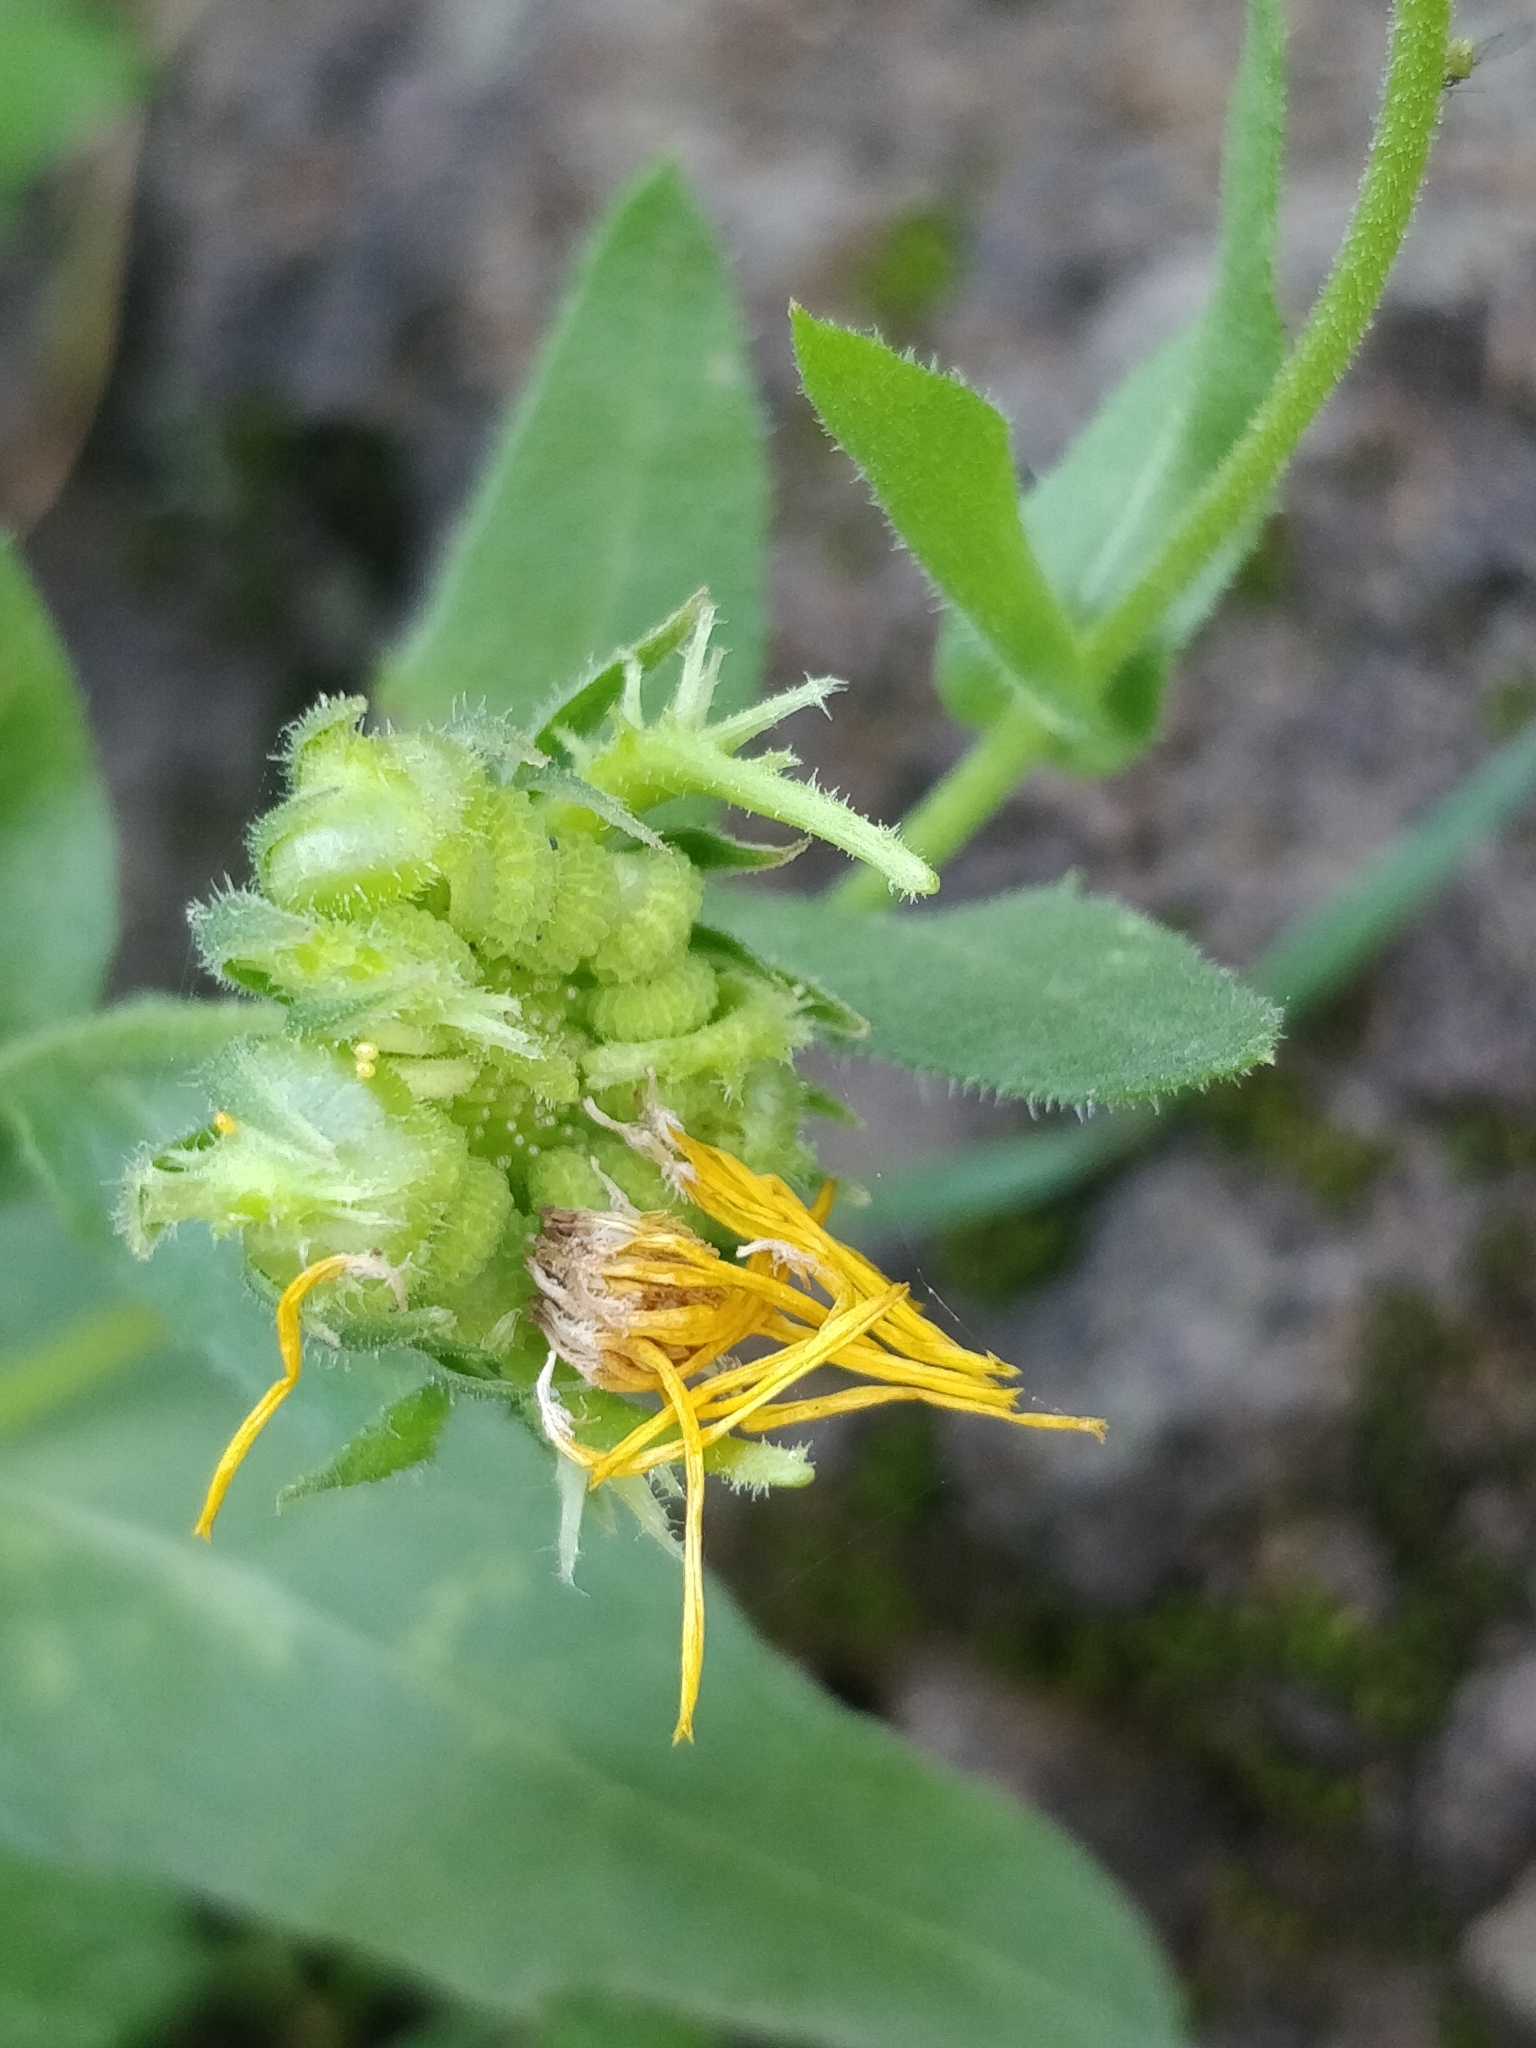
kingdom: Plantae
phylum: Tracheophyta
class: Magnoliopsida
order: Asterales
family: Asteraceae
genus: Calendula
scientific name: Calendula arvensis
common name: Field marigold
